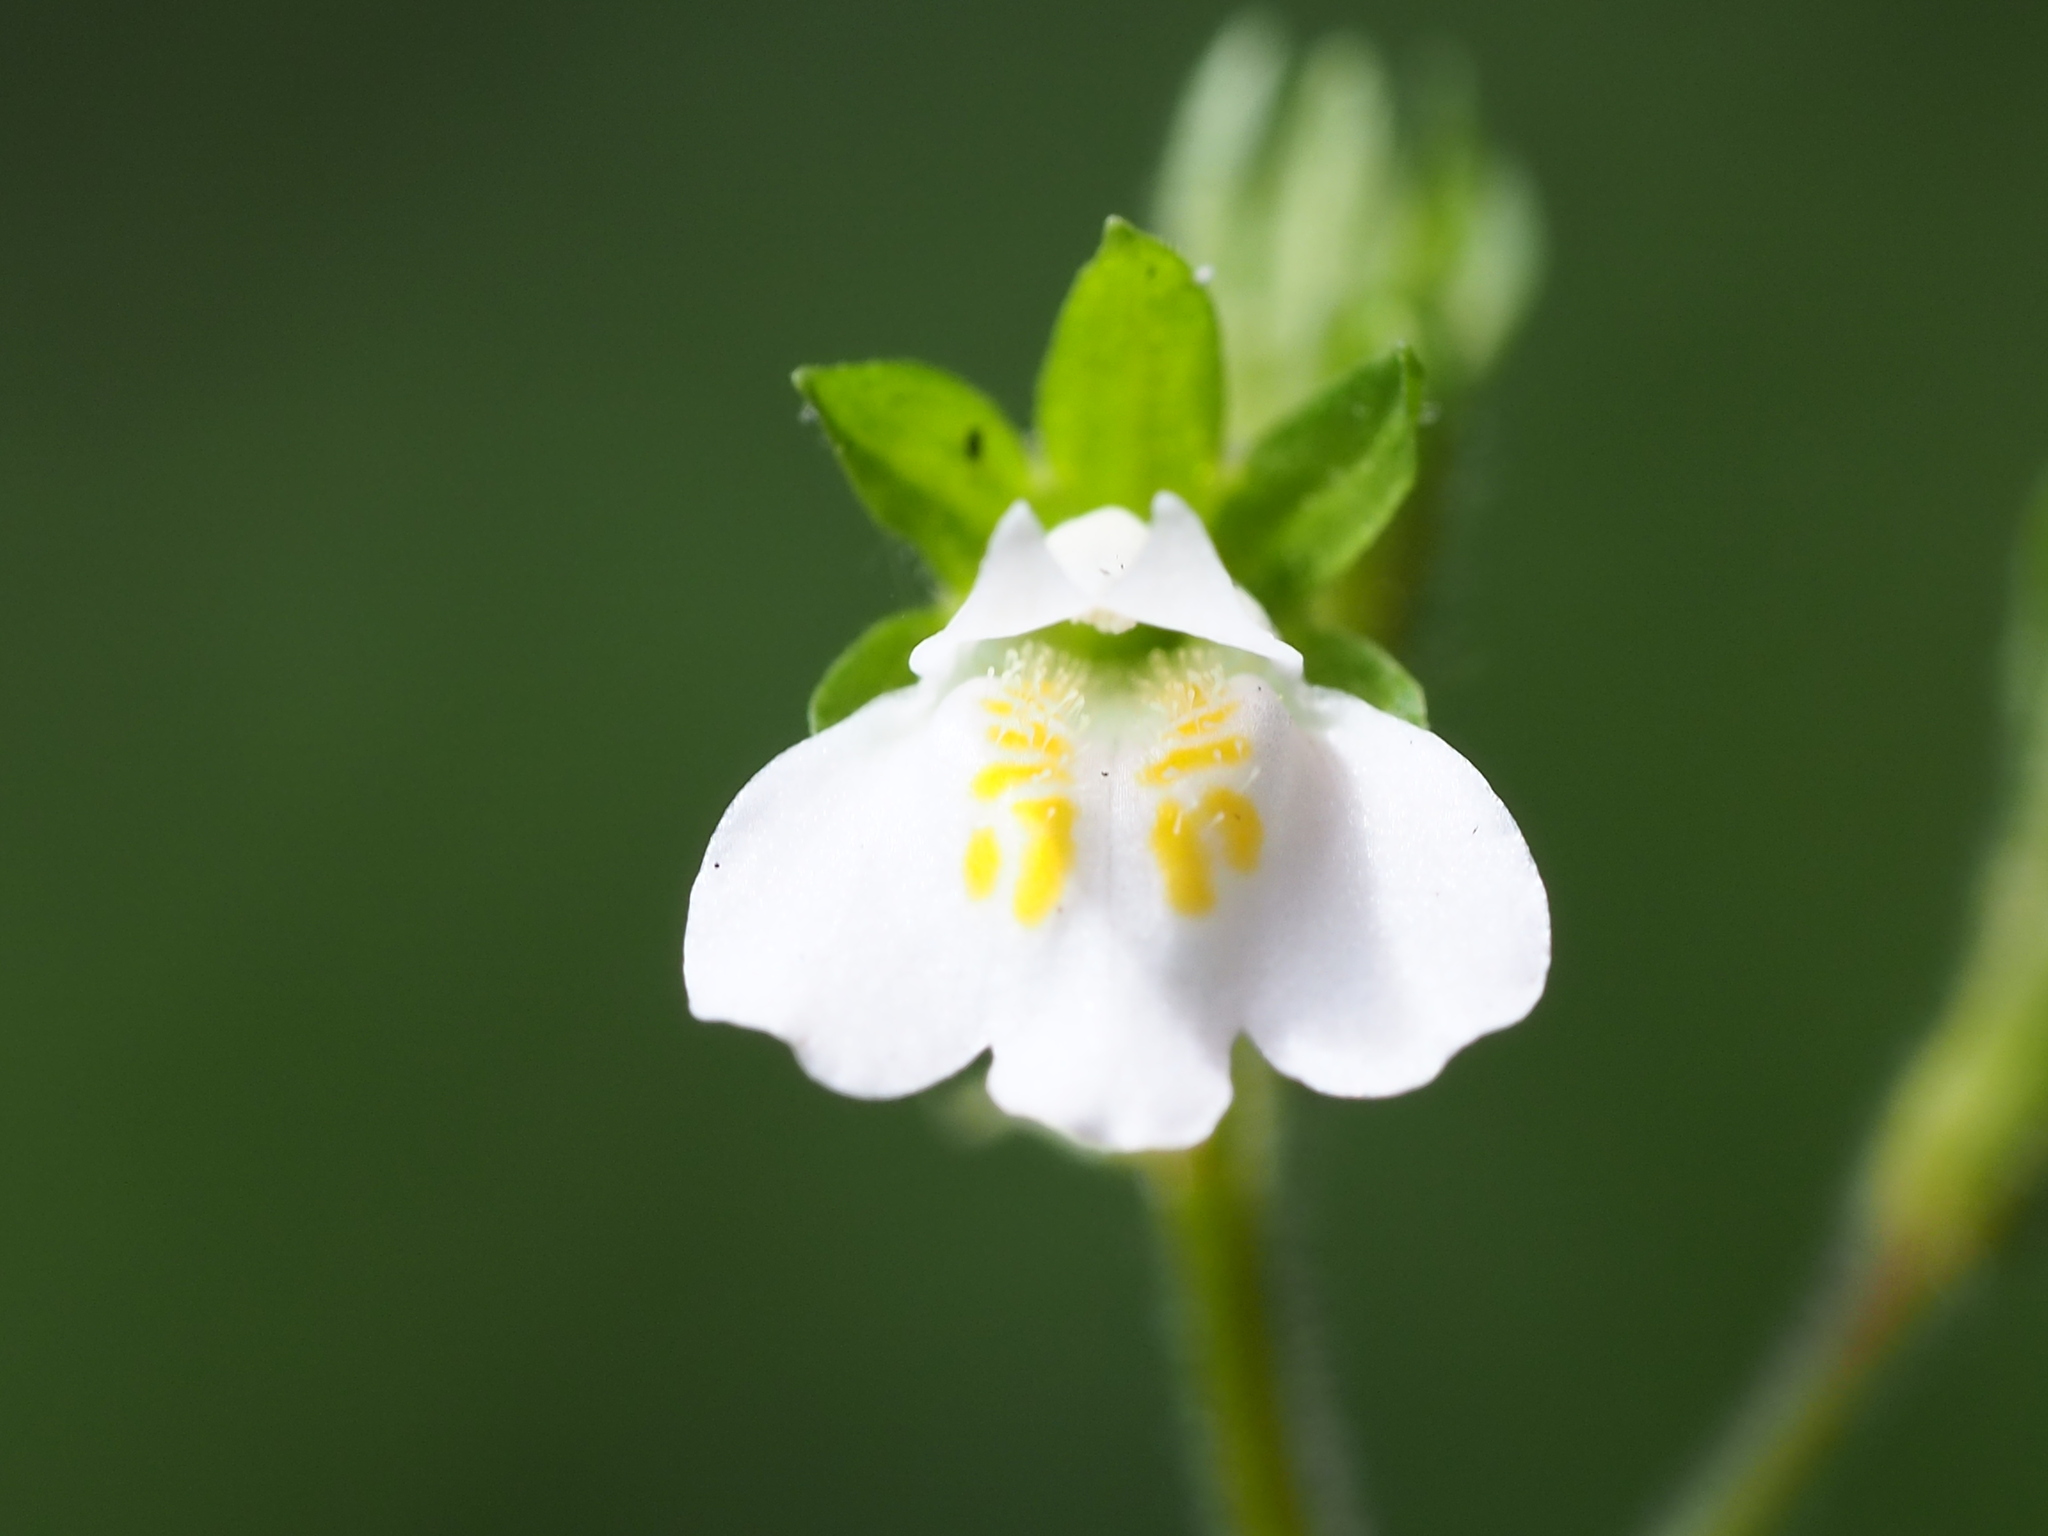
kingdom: Plantae
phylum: Tracheophyta
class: Magnoliopsida
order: Lamiales
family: Mazaceae
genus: Mazus
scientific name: Mazus goodeniifolius
